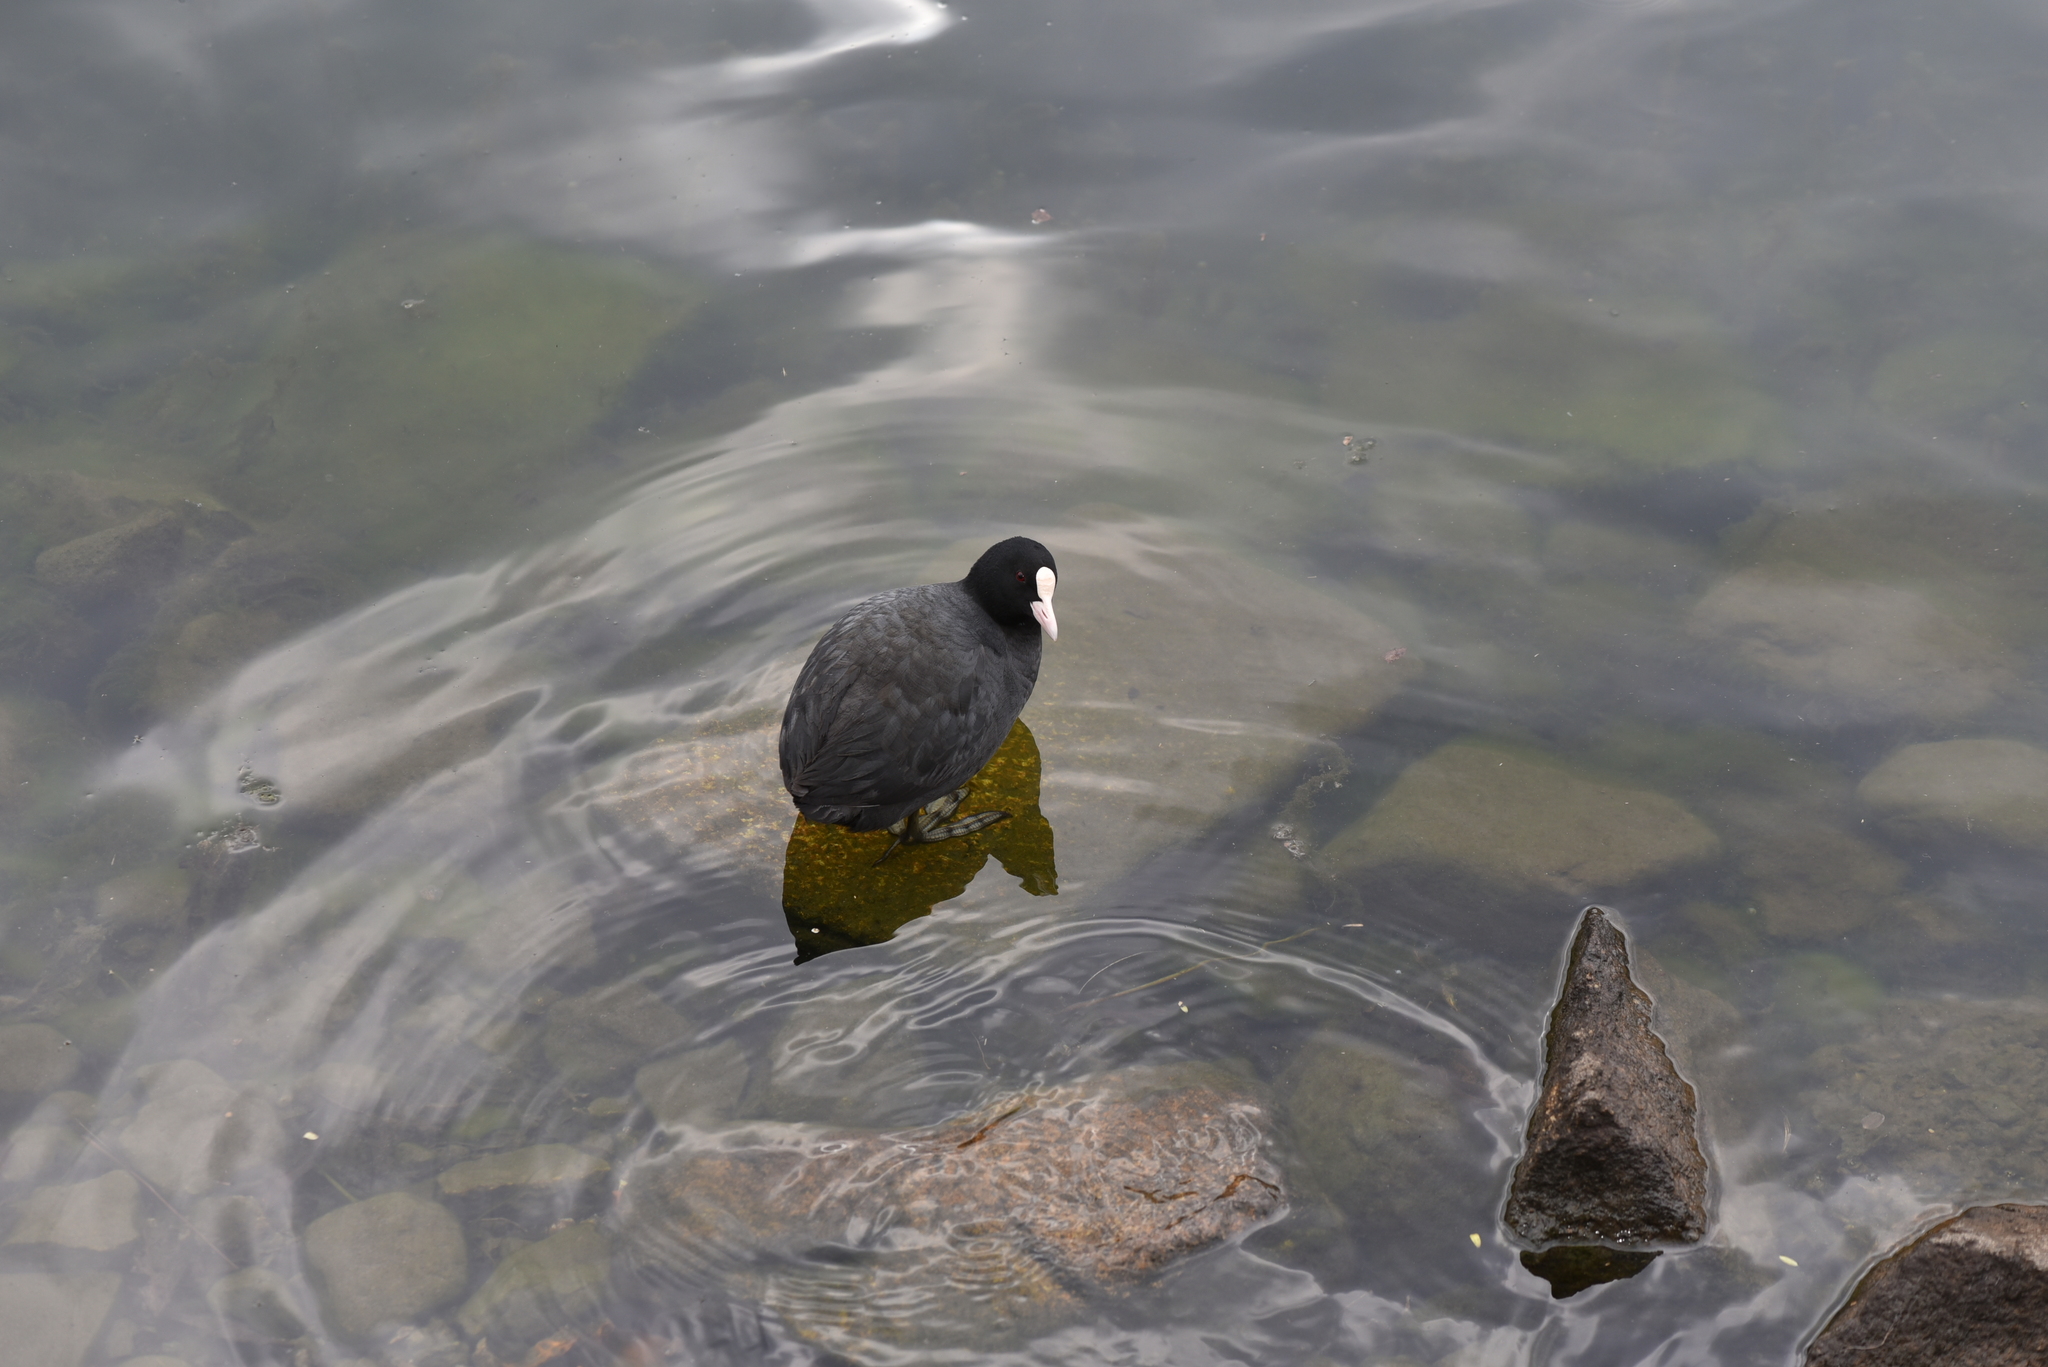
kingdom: Animalia
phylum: Chordata
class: Aves
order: Gruiformes
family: Rallidae
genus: Fulica
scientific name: Fulica atra
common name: Eurasian coot
